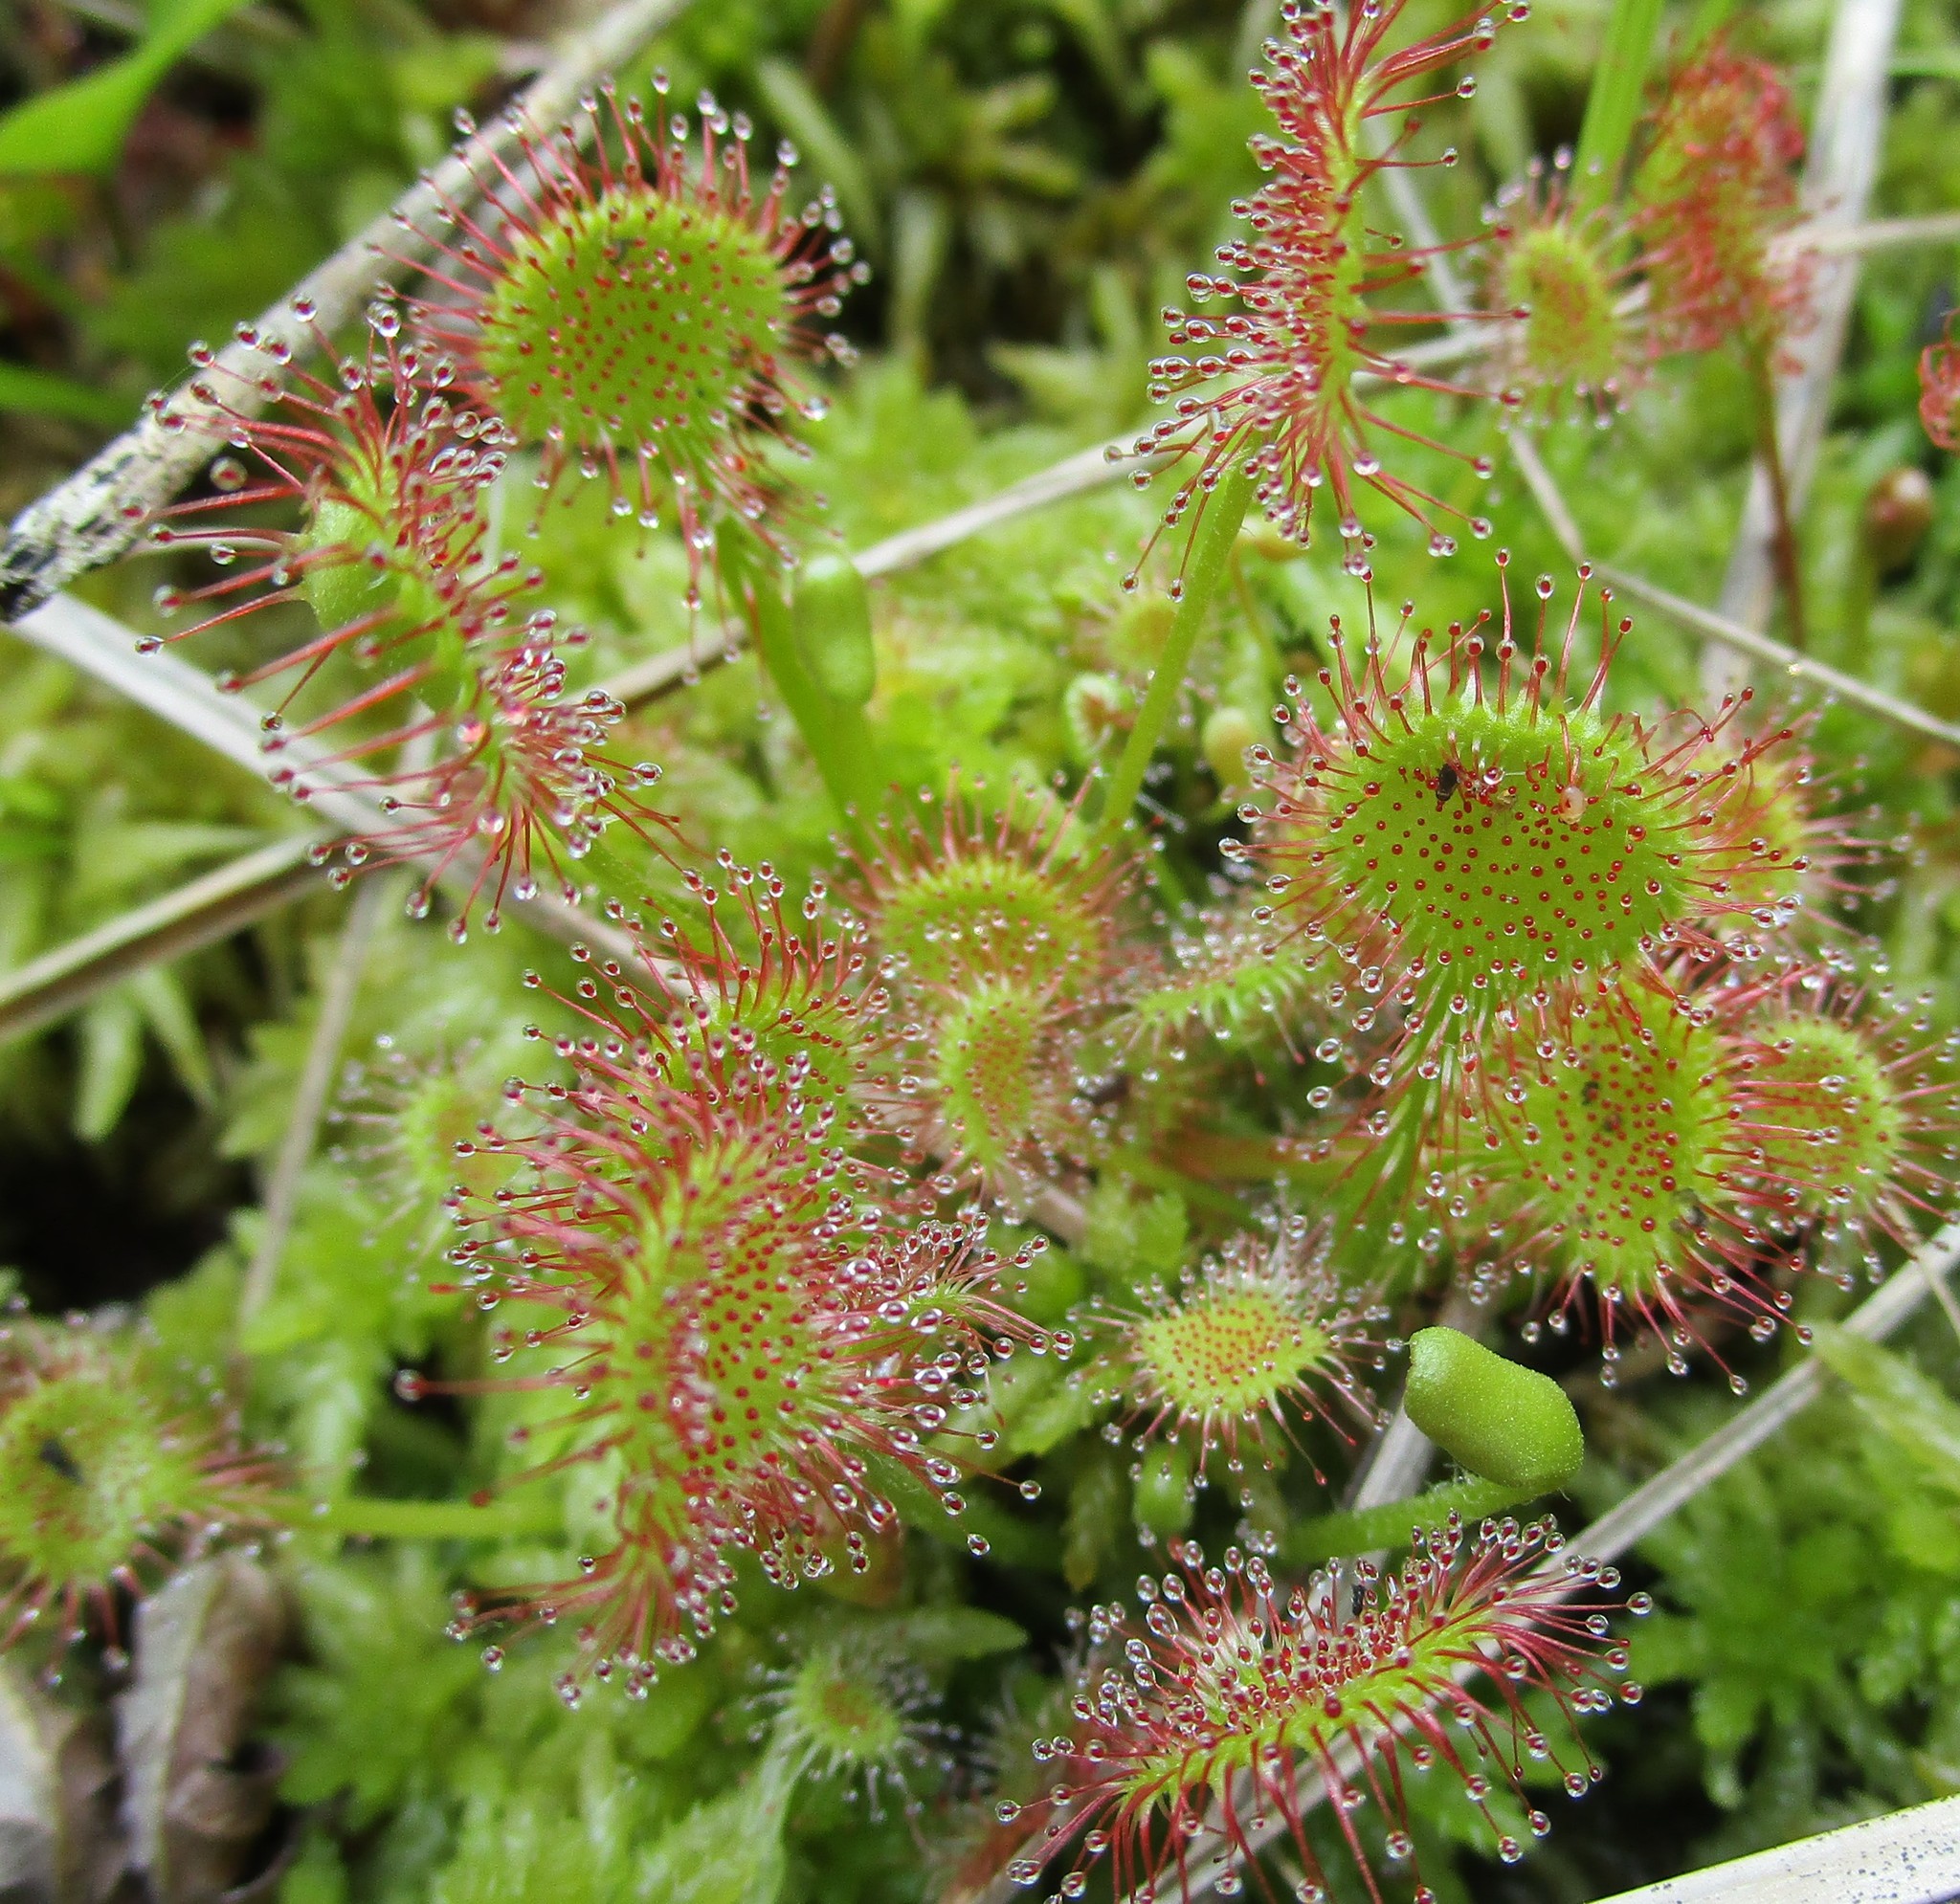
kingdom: Plantae
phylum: Tracheophyta
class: Magnoliopsida
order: Caryophyllales
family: Droseraceae
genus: Drosera
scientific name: Drosera rotundifolia
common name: Round-leaved sundew
